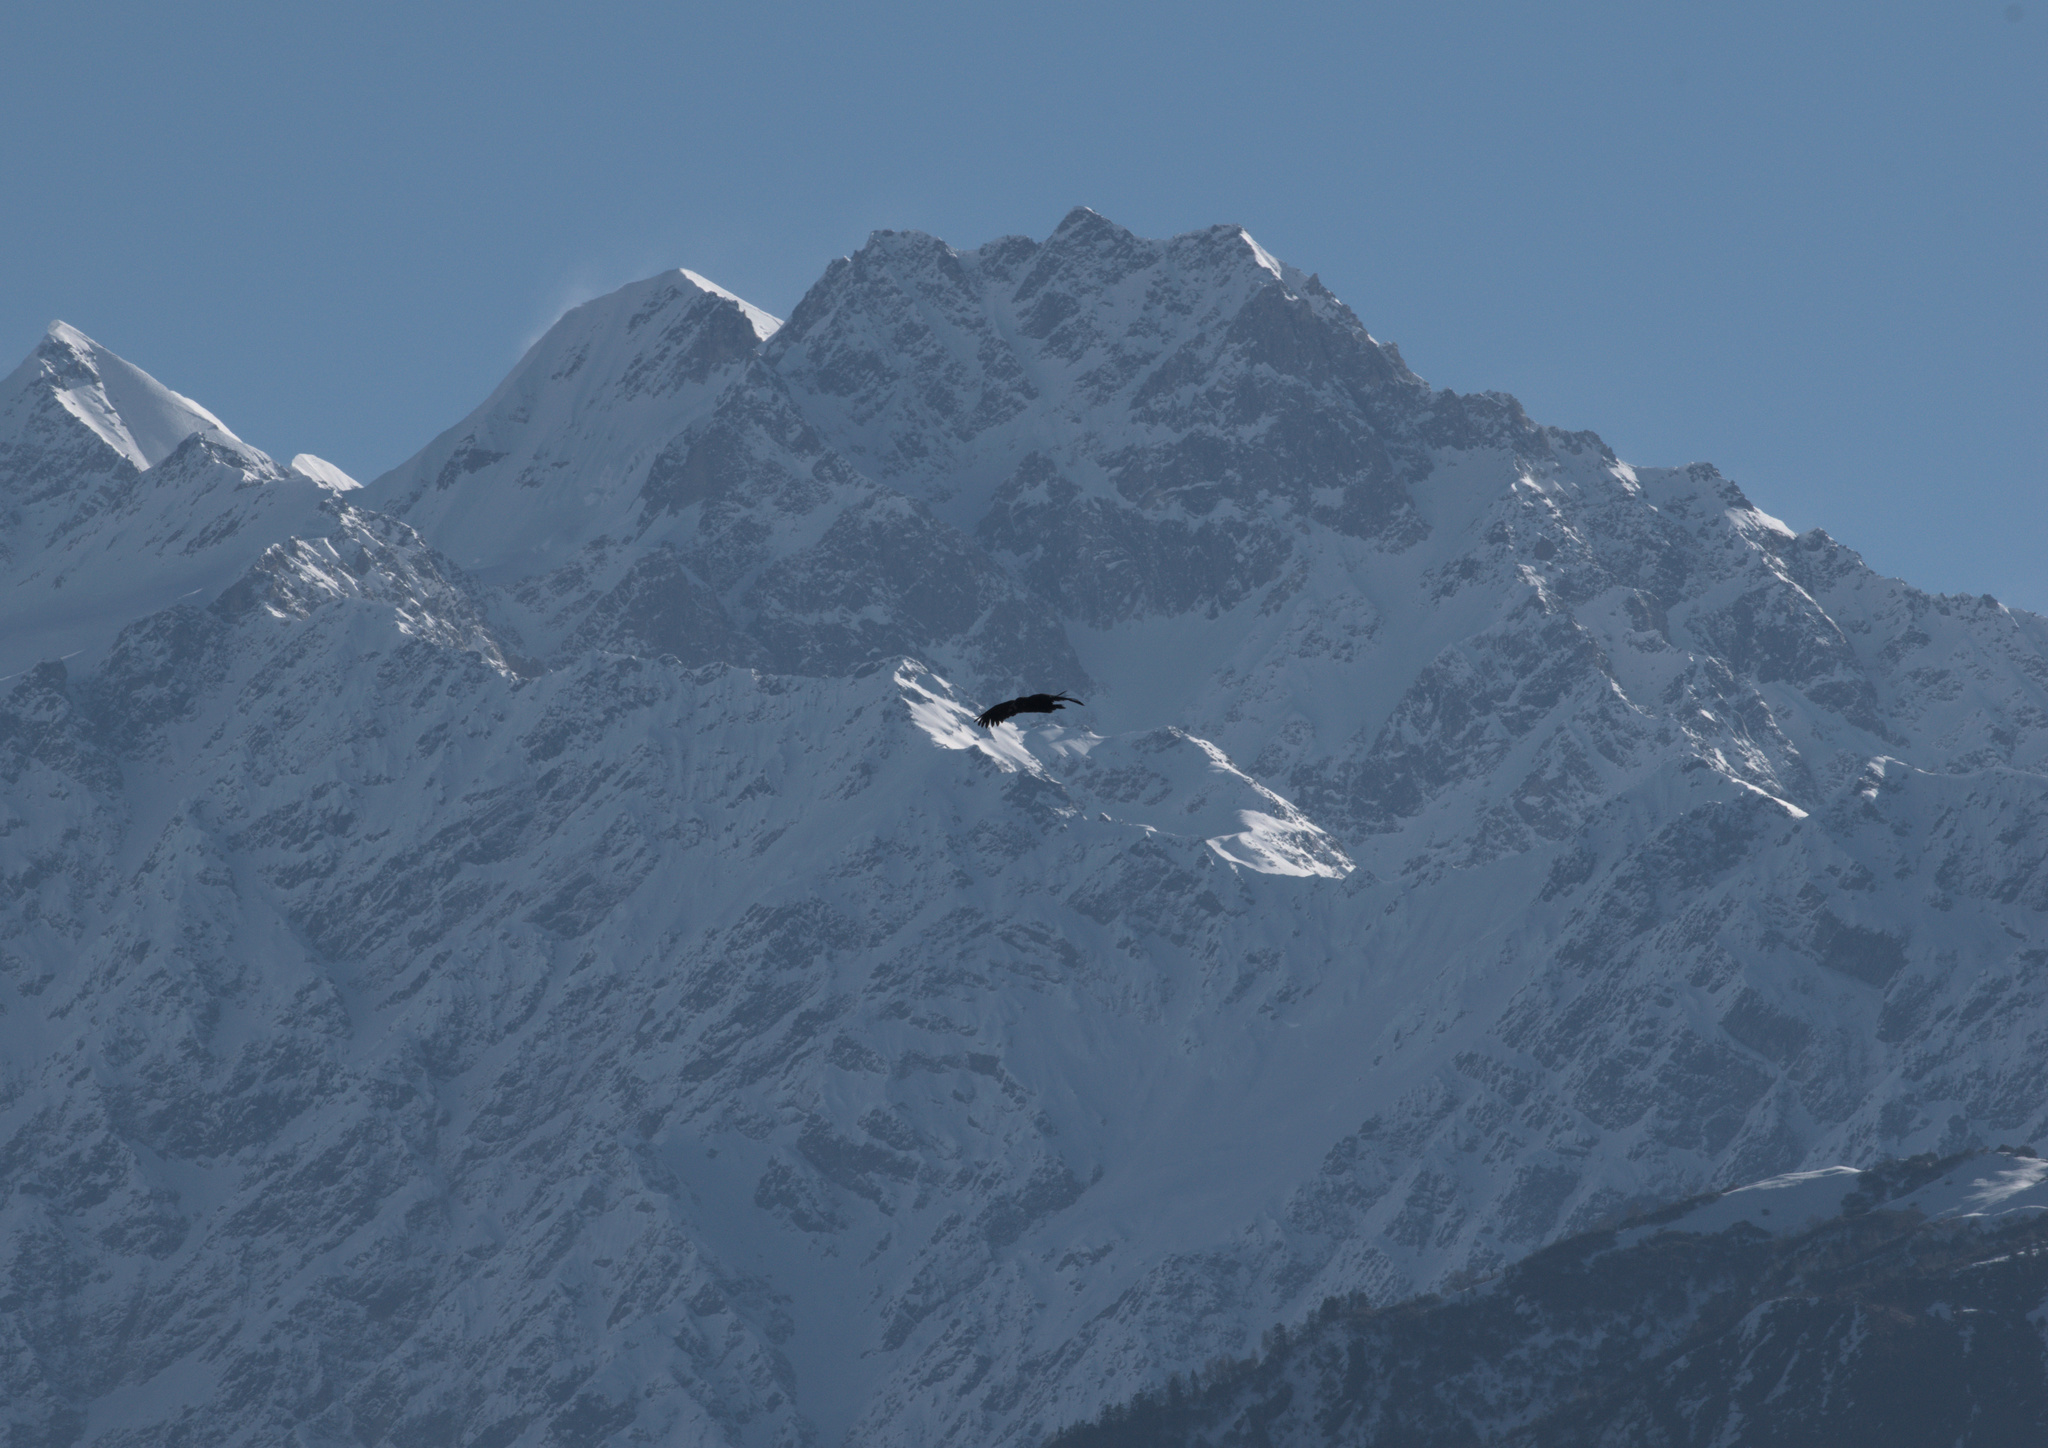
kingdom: Animalia
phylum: Chordata
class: Aves
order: Accipitriformes
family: Accipitridae
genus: Aegypius
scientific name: Aegypius monachus
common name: Cinereous vulture
